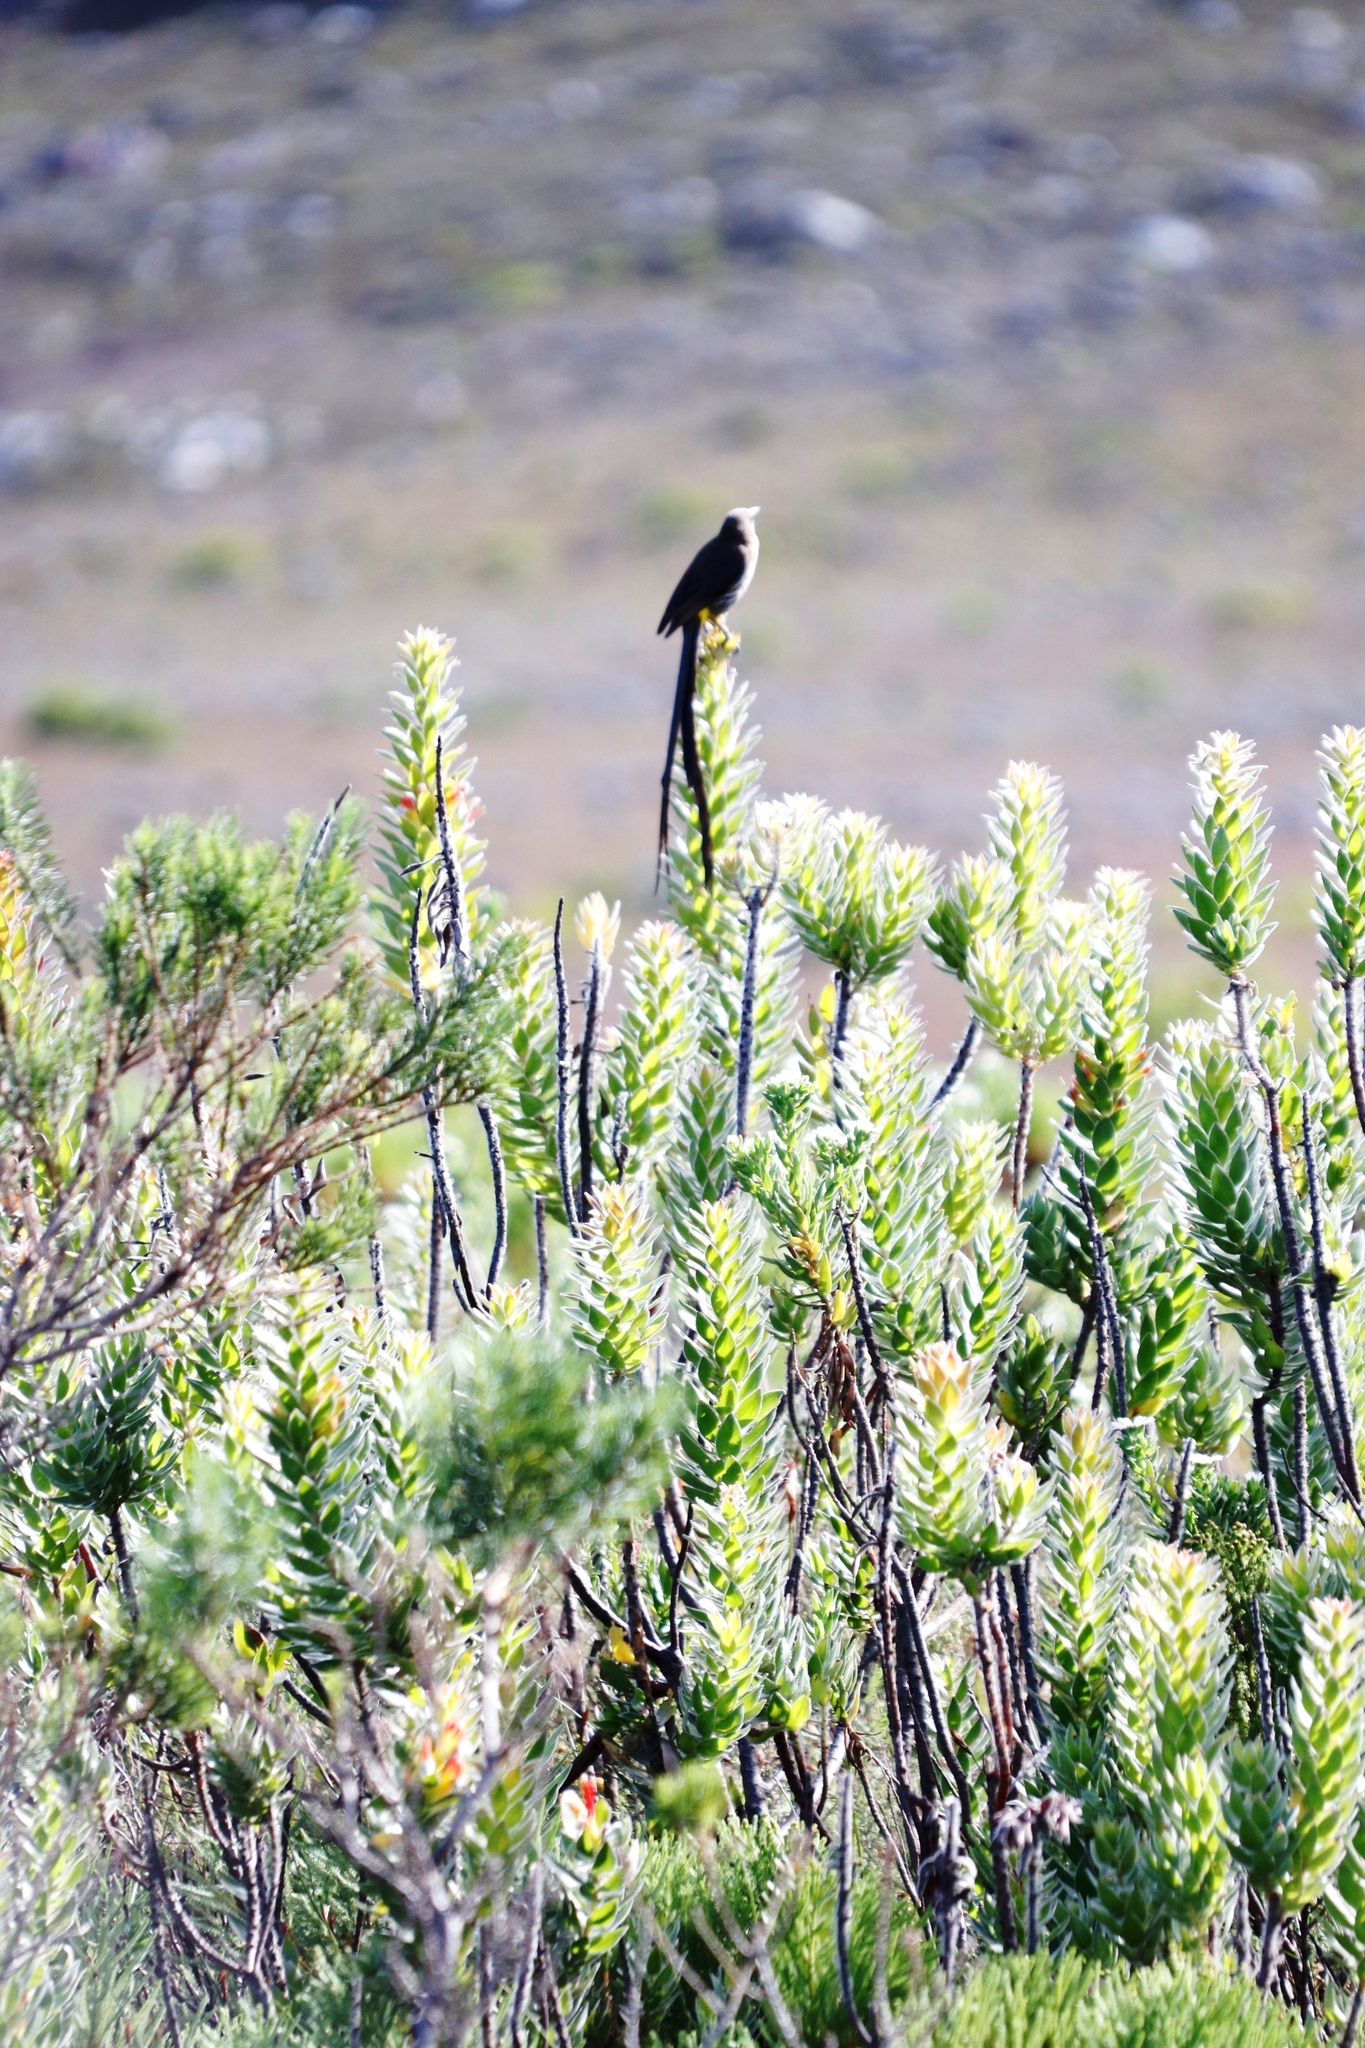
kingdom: Plantae
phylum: Tracheophyta
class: Magnoliopsida
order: Proteales
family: Proteaceae
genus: Mimetes
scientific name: Mimetes hirtus
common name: Marsh pagoda
